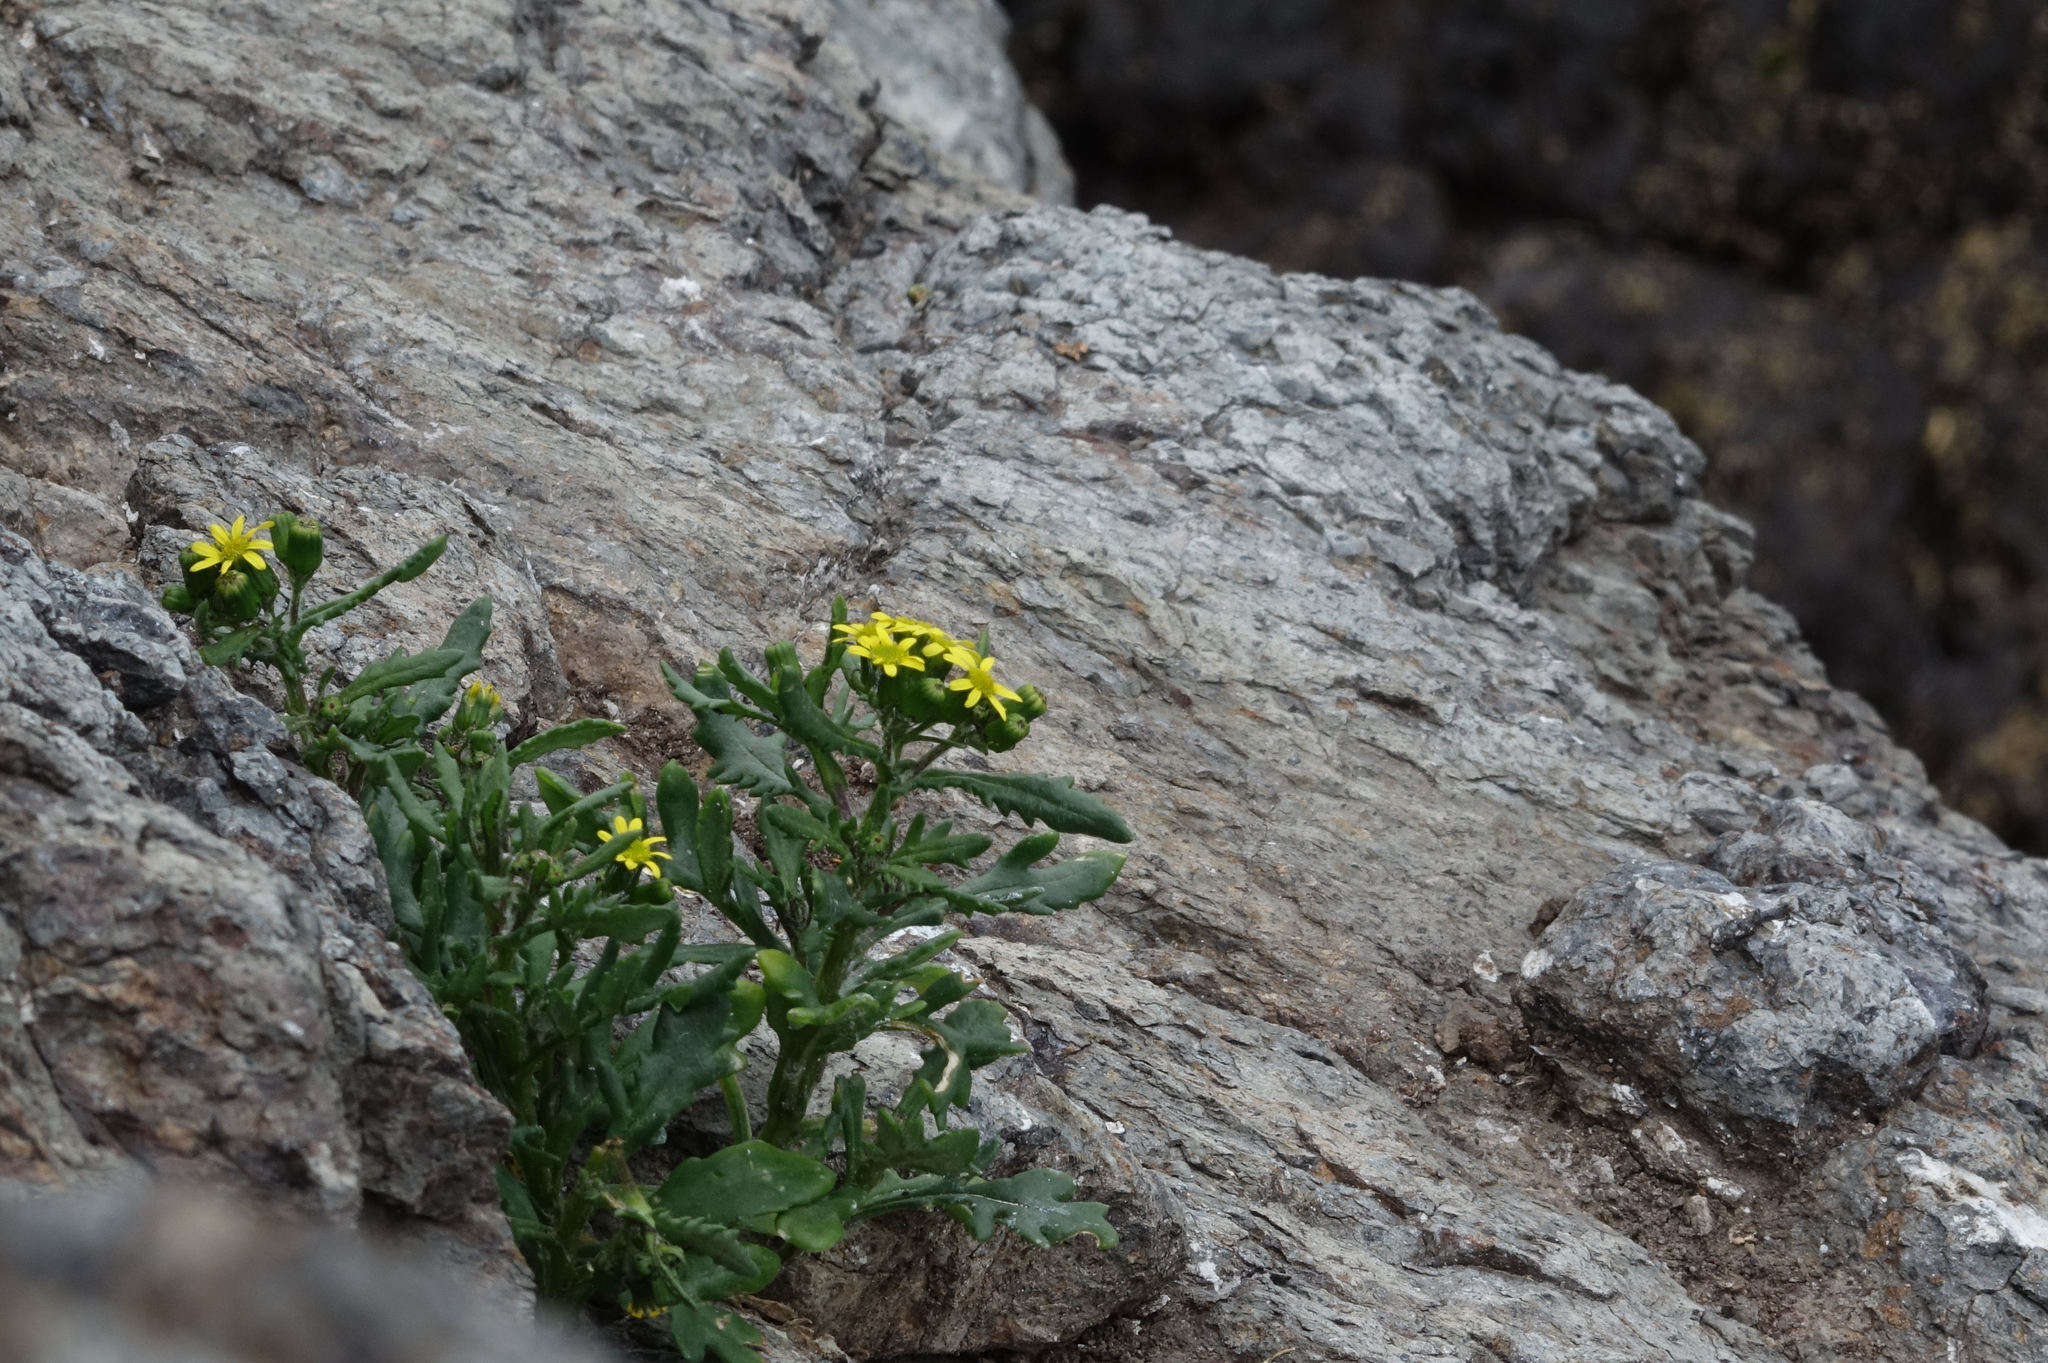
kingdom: Plantae
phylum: Tracheophyta
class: Magnoliopsida
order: Asterales
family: Asteraceae
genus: Senecio
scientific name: Senecio carnosulus
